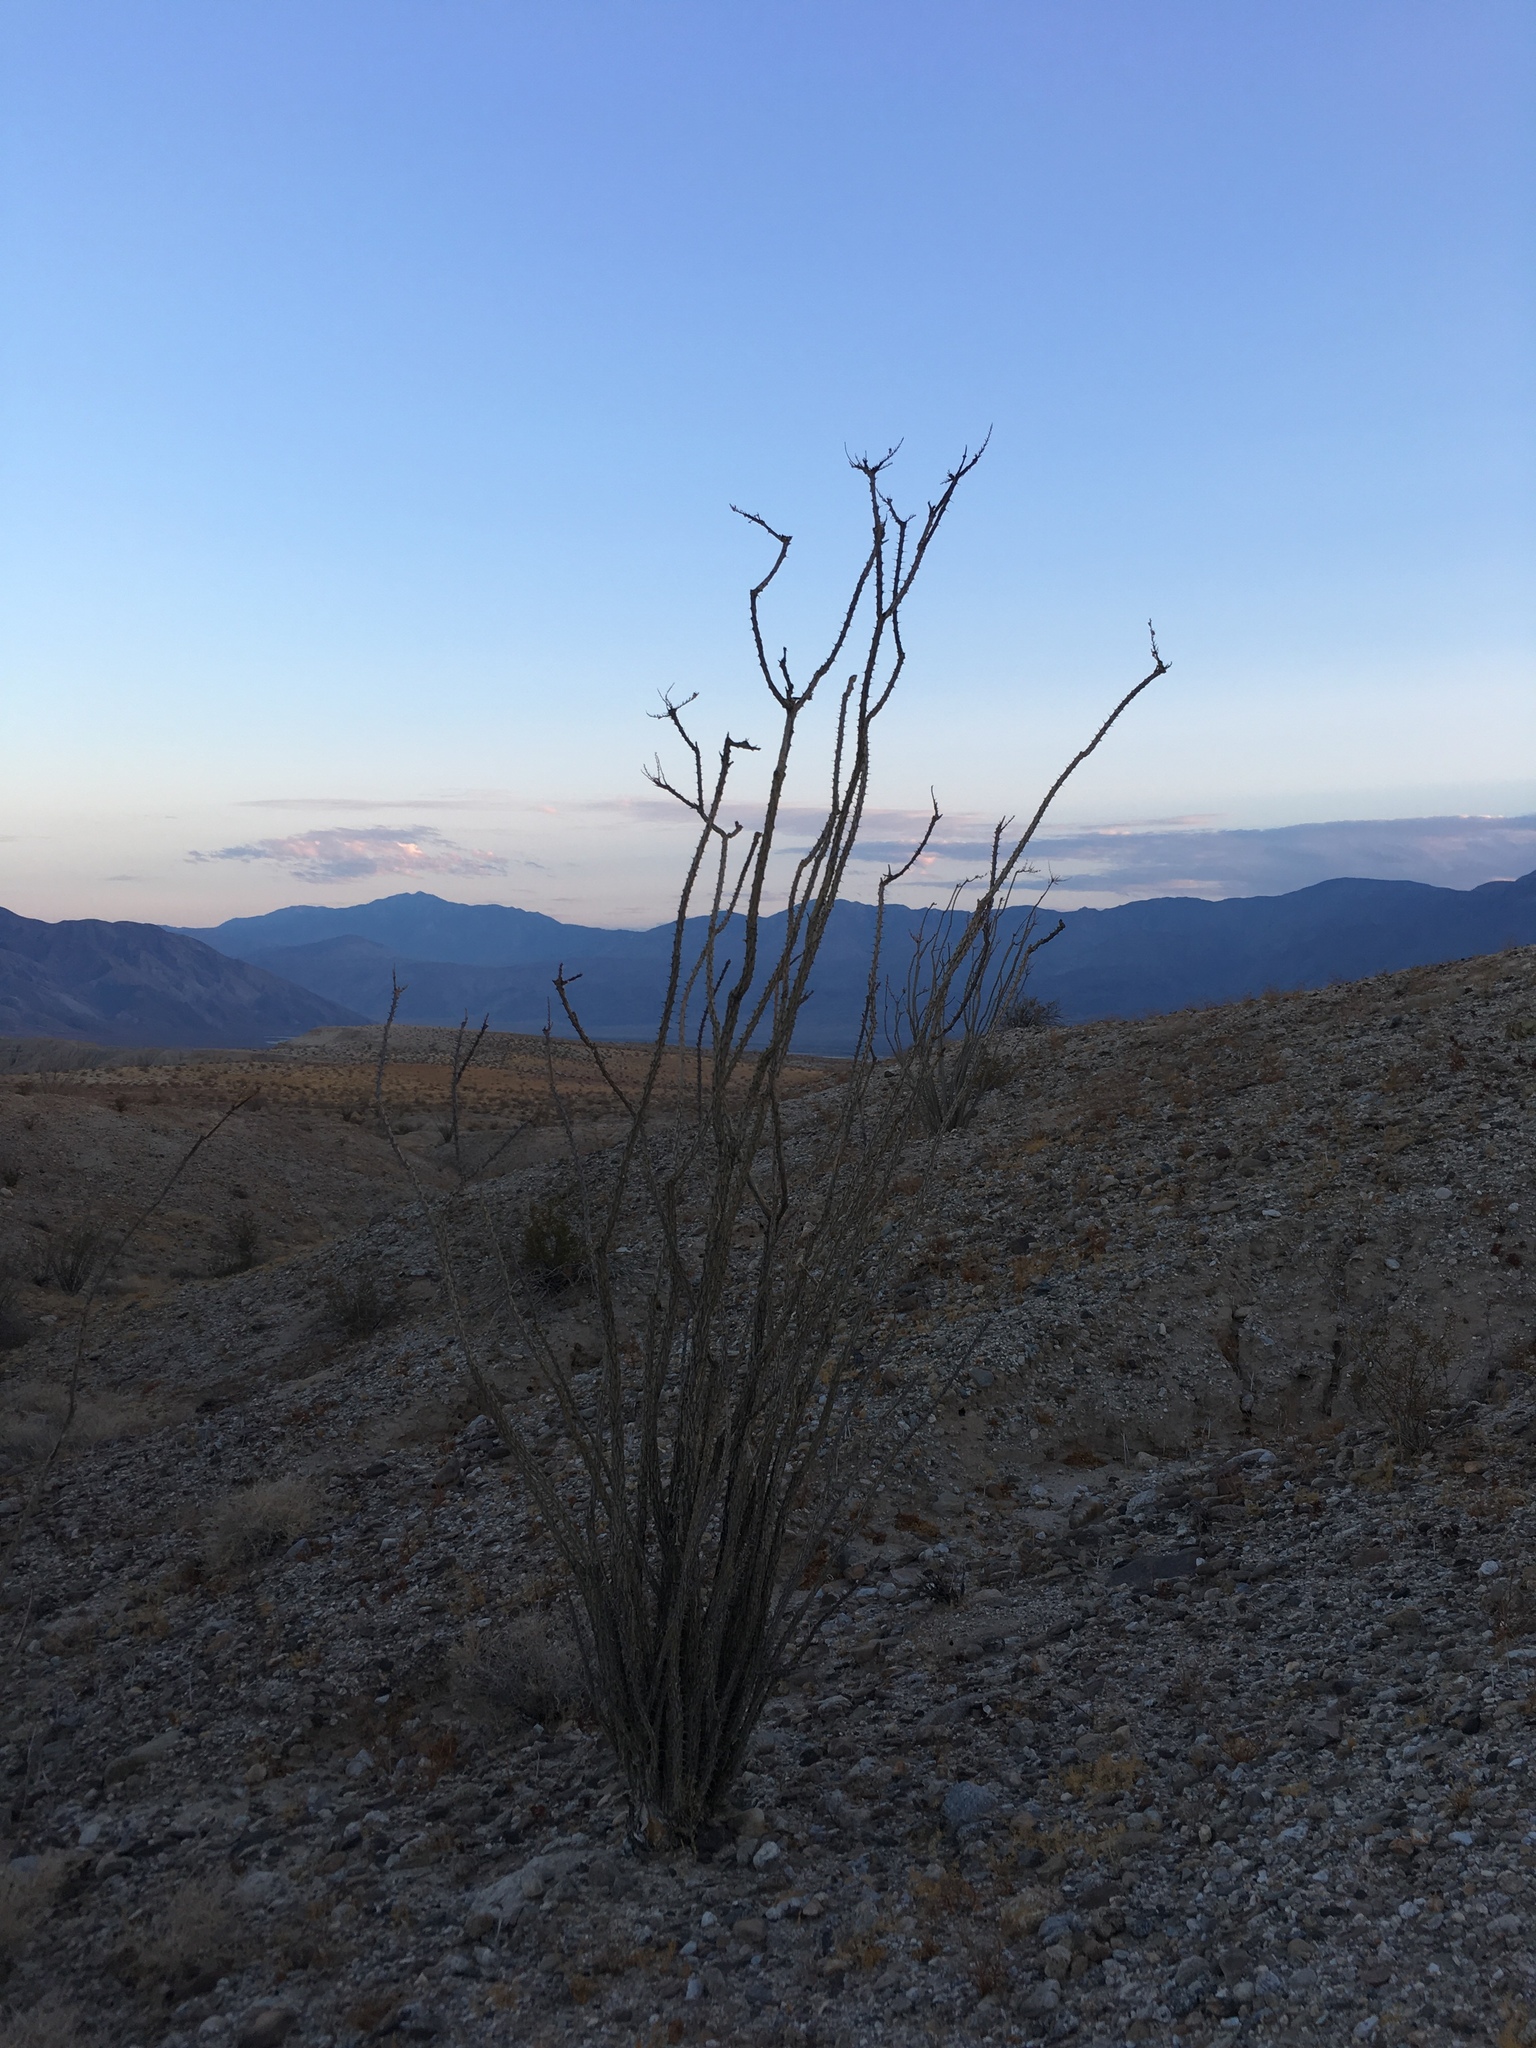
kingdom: Plantae
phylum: Tracheophyta
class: Magnoliopsida
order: Ericales
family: Fouquieriaceae
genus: Fouquieria
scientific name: Fouquieria splendens
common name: Vine-cactus
